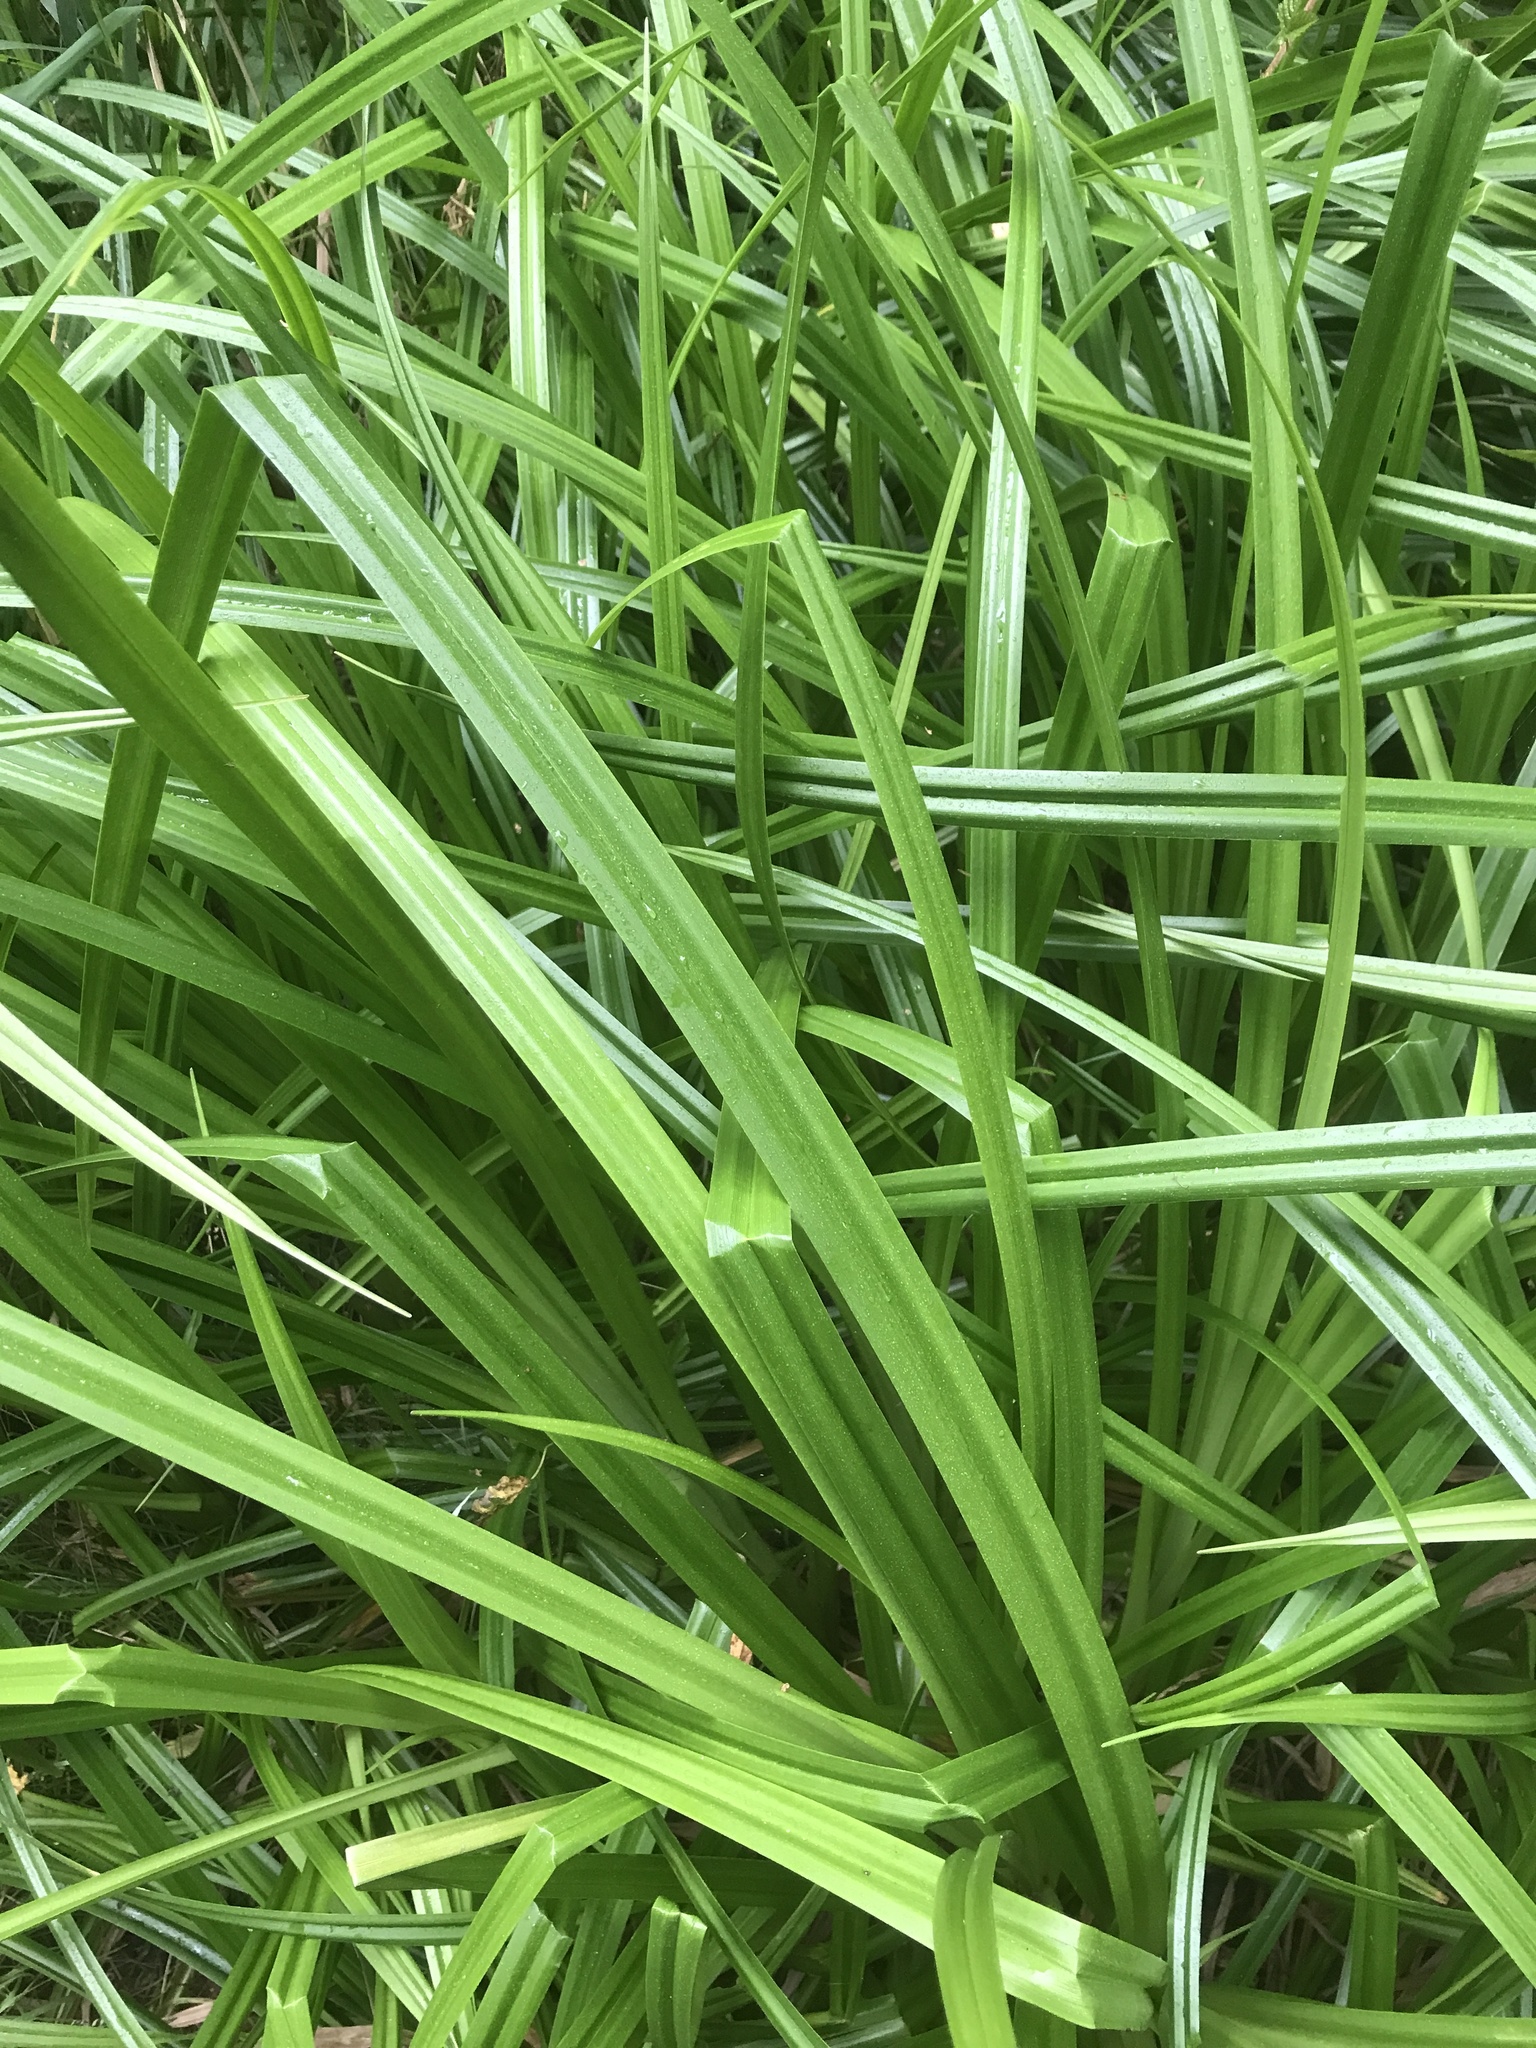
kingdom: Plantae
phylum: Tracheophyta
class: Liliopsida
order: Poales
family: Cyperaceae
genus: Scirpus
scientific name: Scirpus sylvaticus
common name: Wood club-rush
